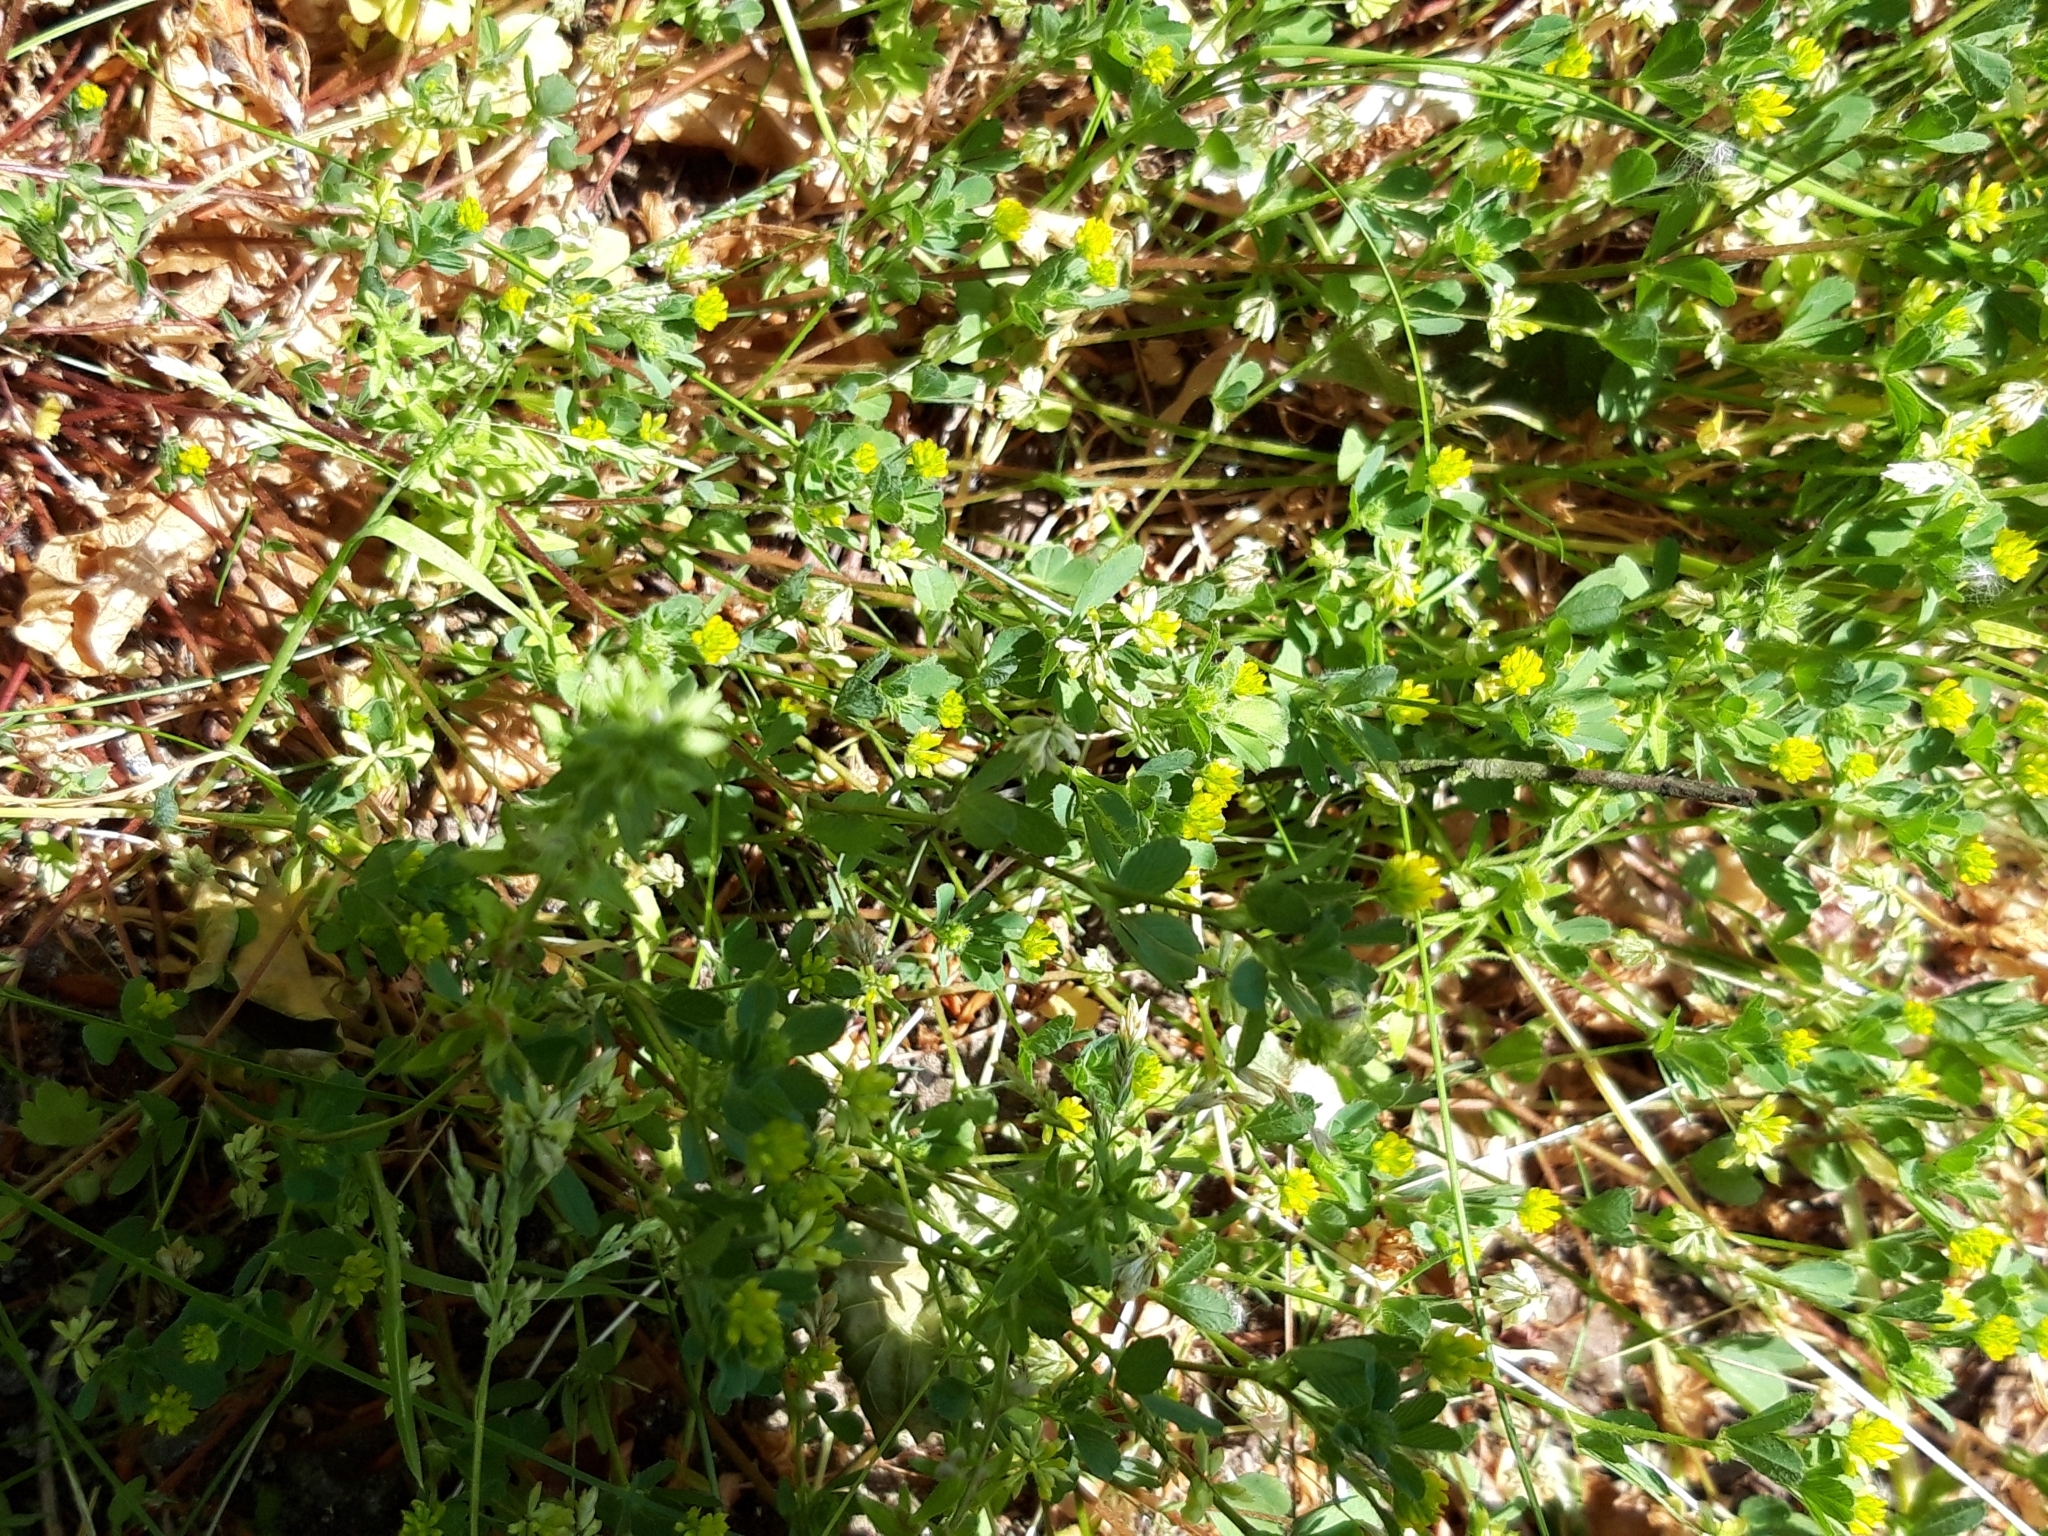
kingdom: Plantae
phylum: Tracheophyta
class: Magnoliopsida
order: Fabales
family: Fabaceae
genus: Trifolium
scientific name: Trifolium dubium
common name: Suckling clover
